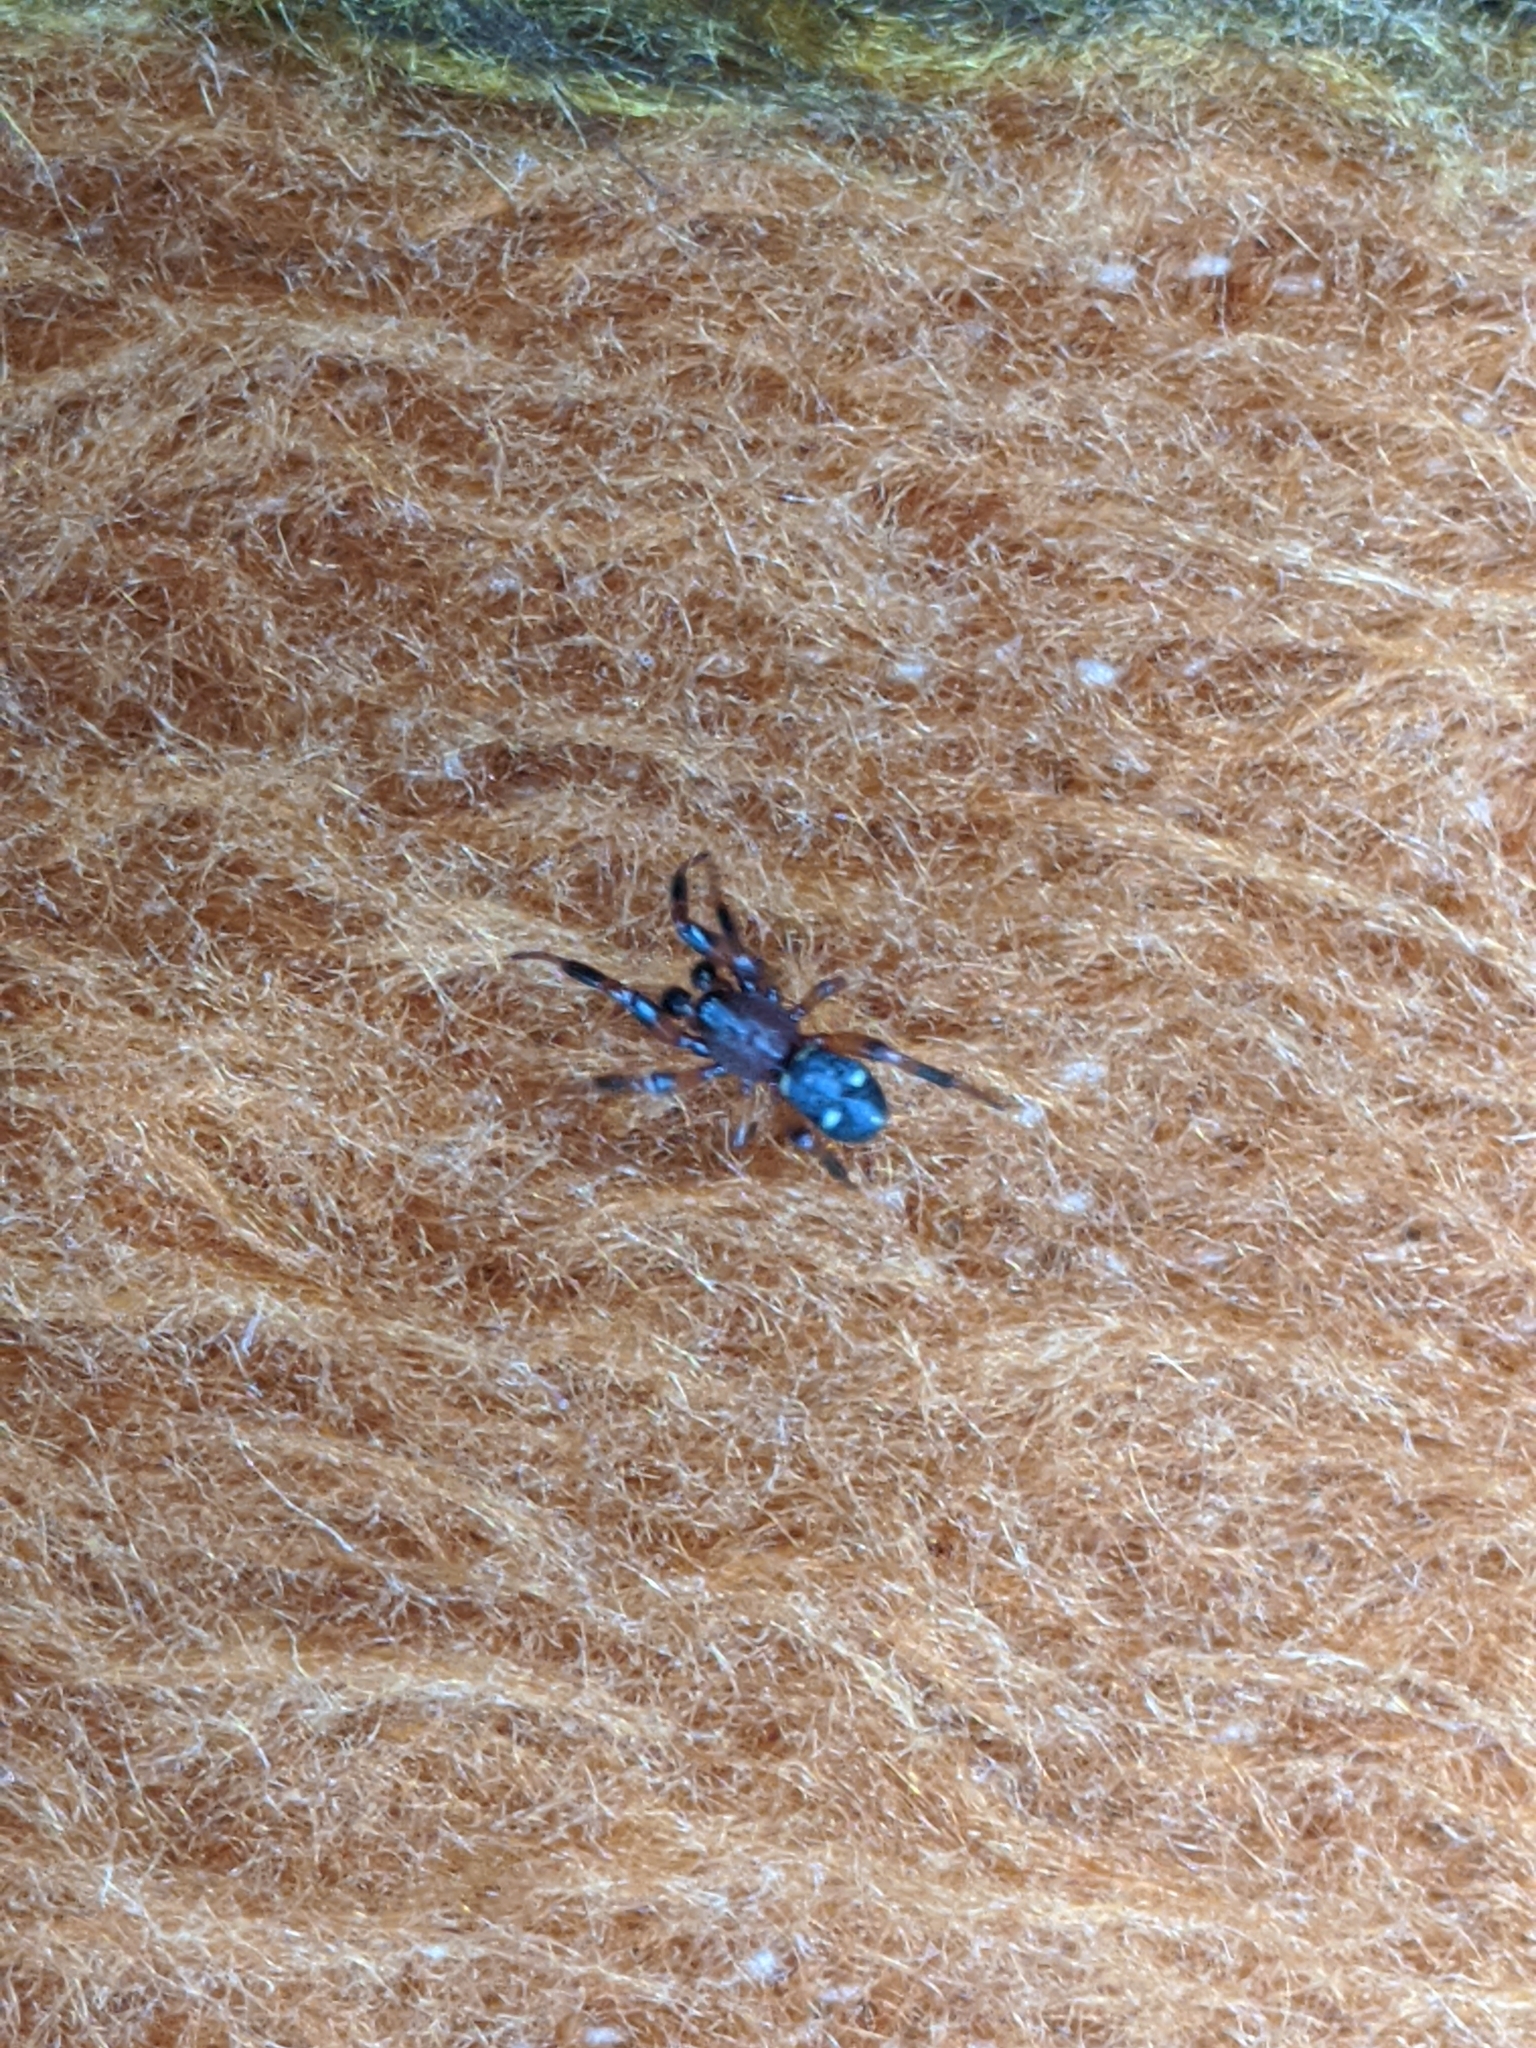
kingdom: Animalia
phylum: Arthropoda
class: Arachnida
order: Araneae
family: Theridiidae
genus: Asagena
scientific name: Asagena phalerata
